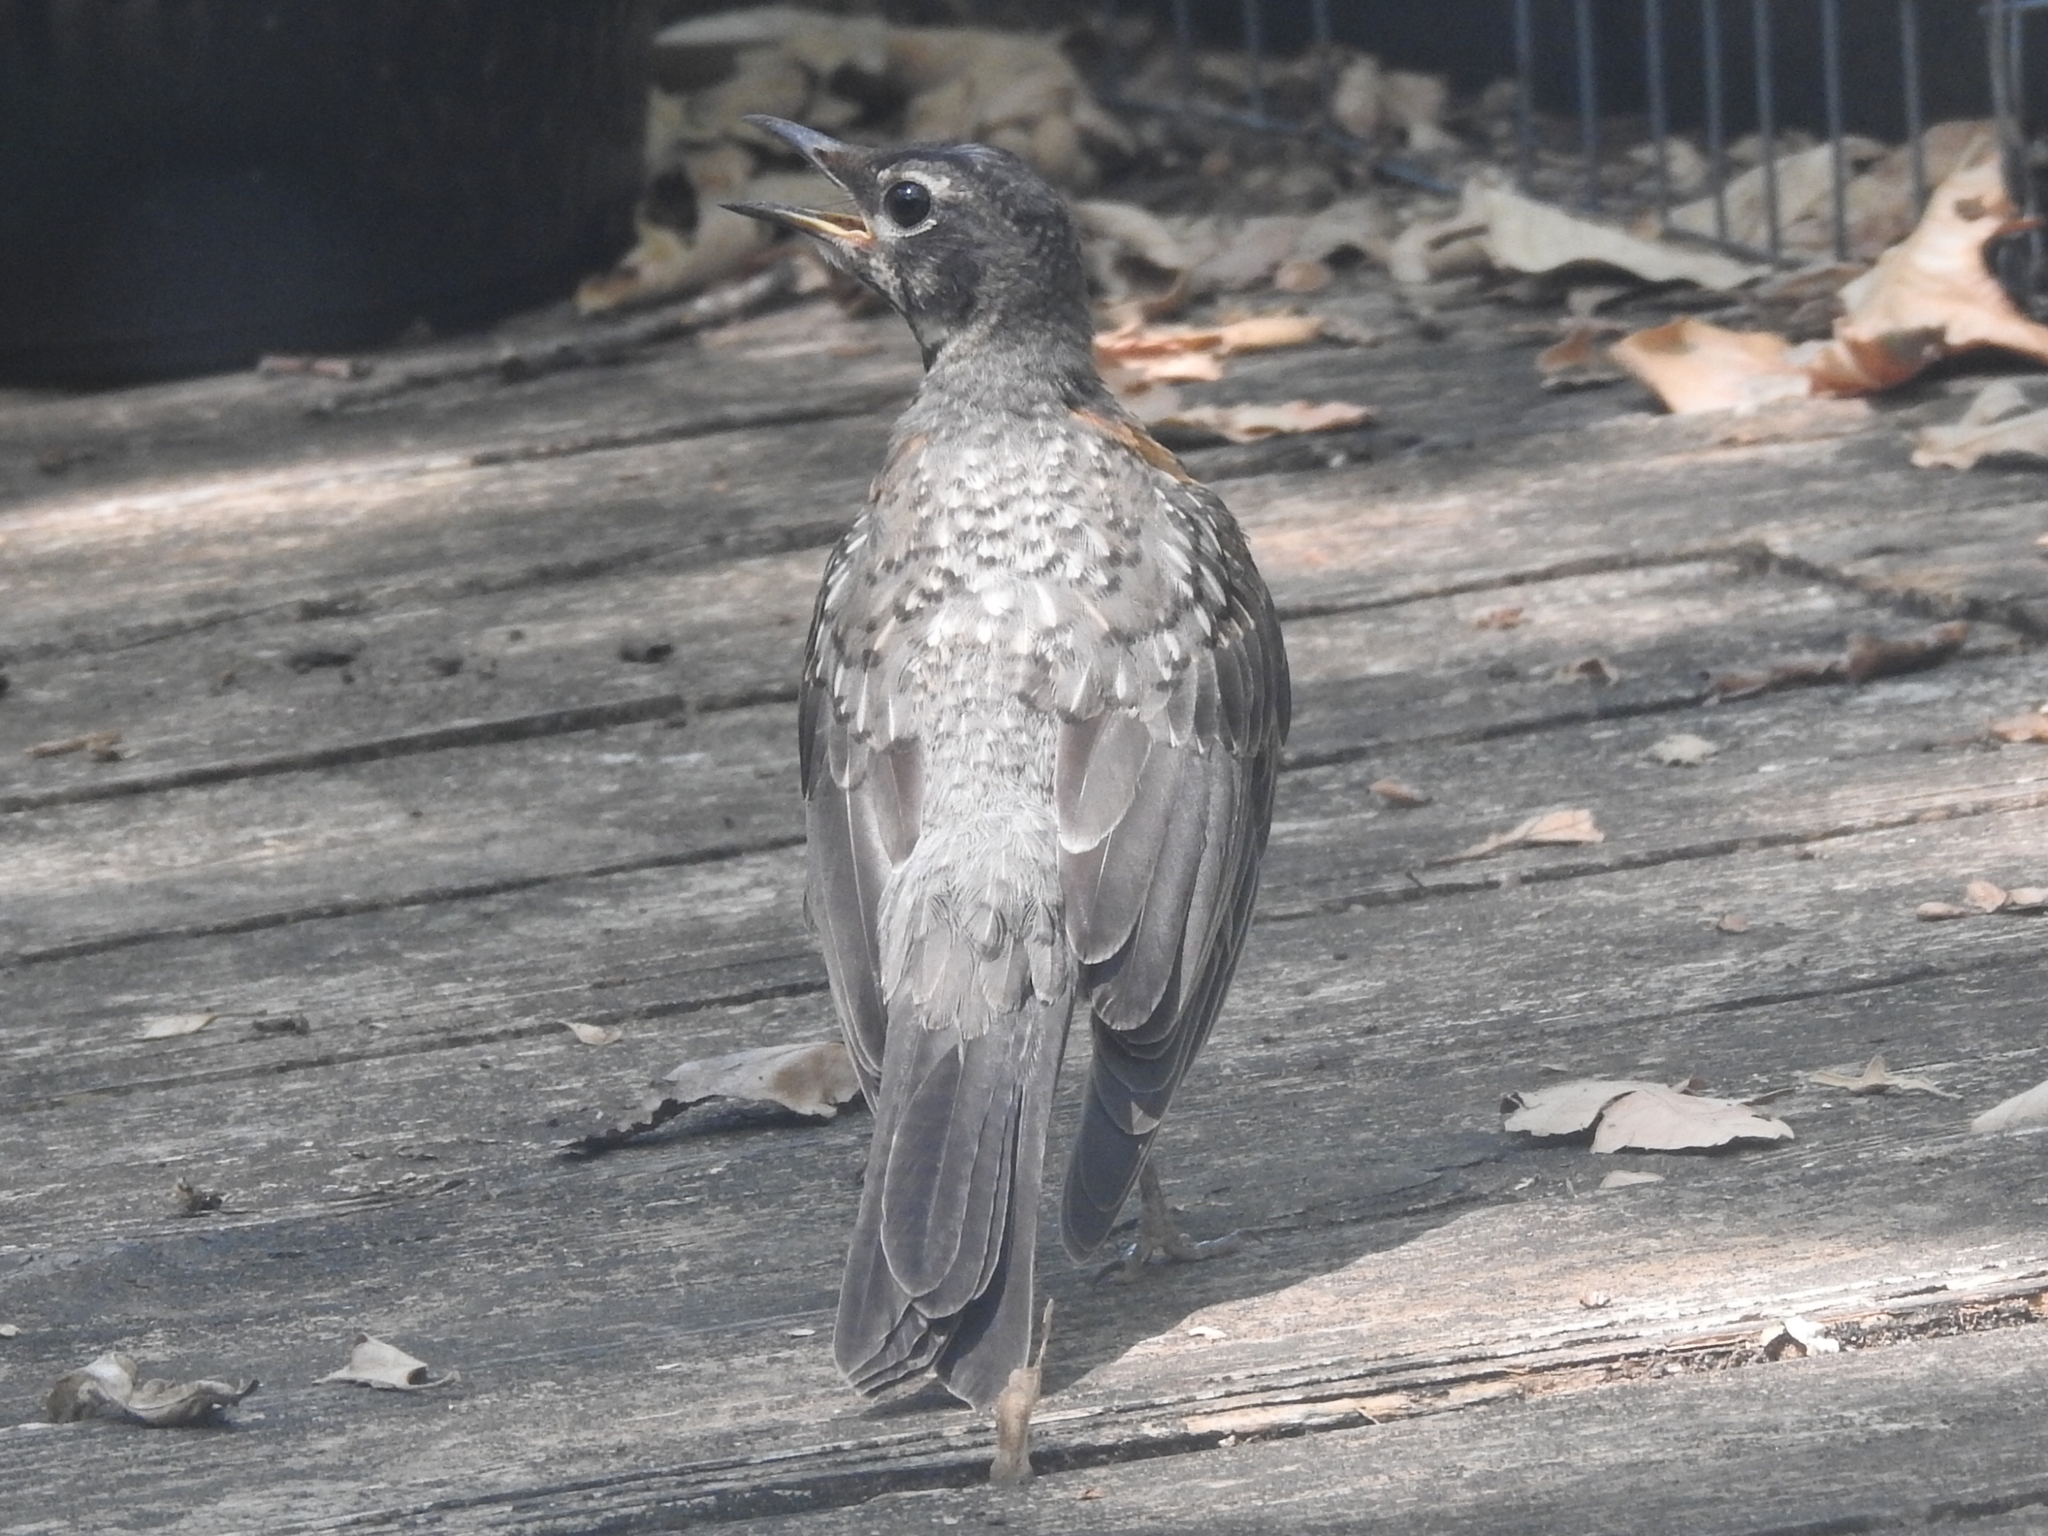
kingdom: Animalia
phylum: Chordata
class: Aves
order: Passeriformes
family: Turdidae
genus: Turdus
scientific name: Turdus migratorius
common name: American robin
